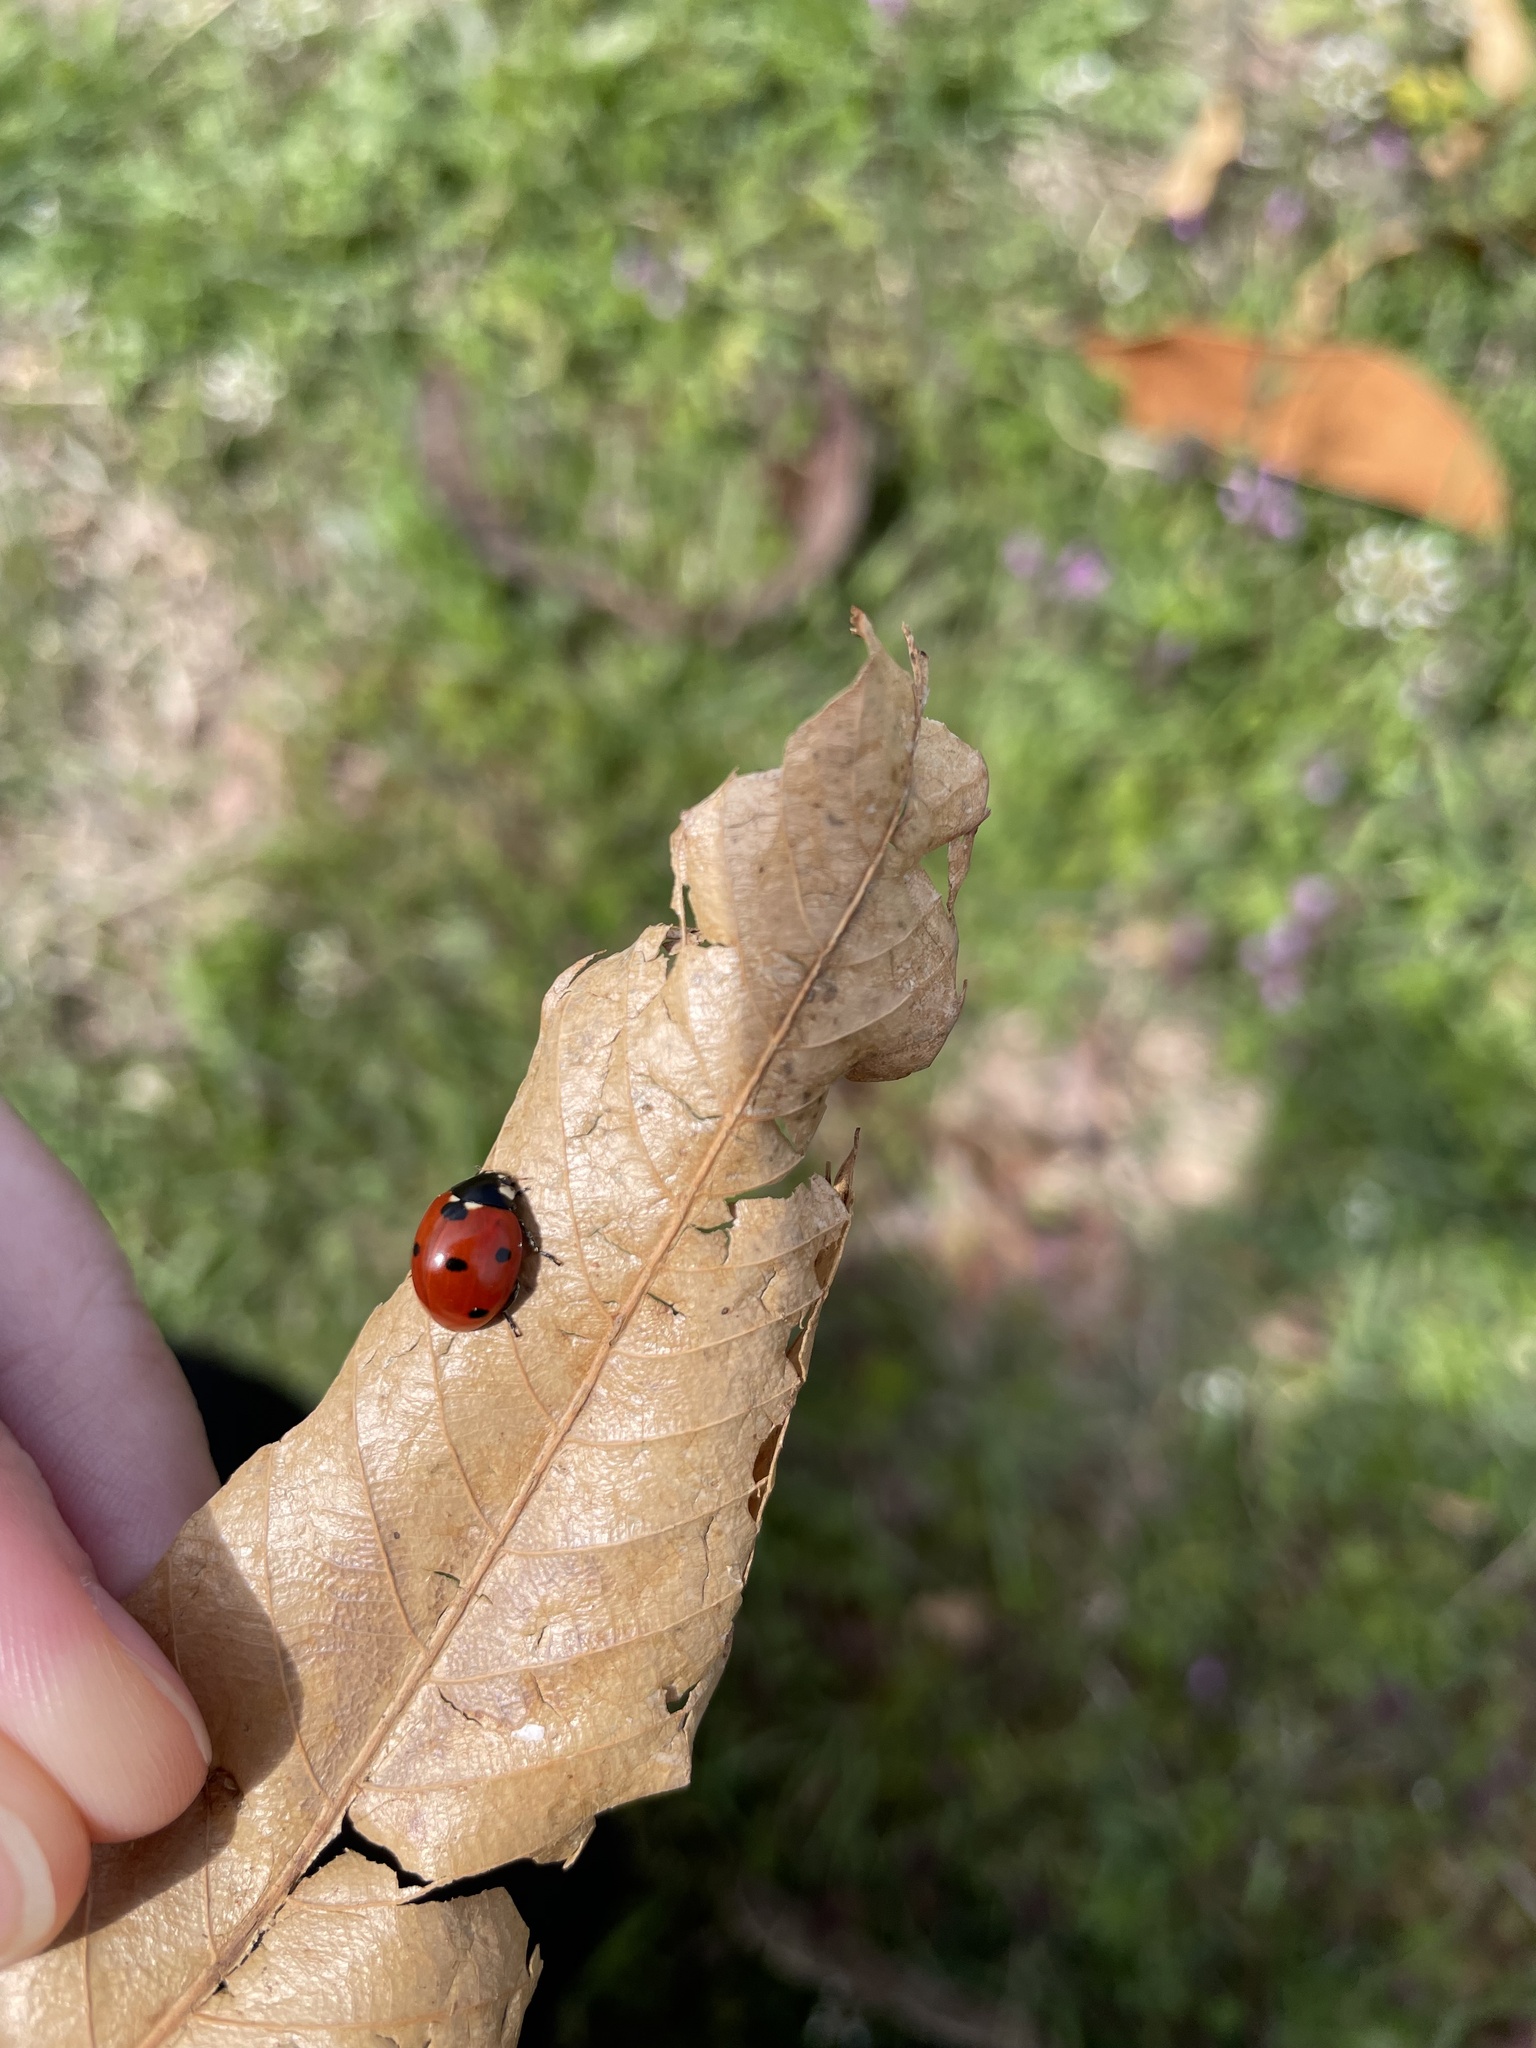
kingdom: Animalia
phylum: Arthropoda
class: Insecta
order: Coleoptera
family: Coccinellidae
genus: Coccinella
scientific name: Coccinella septempunctata
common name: Sevenspotted lady beetle
